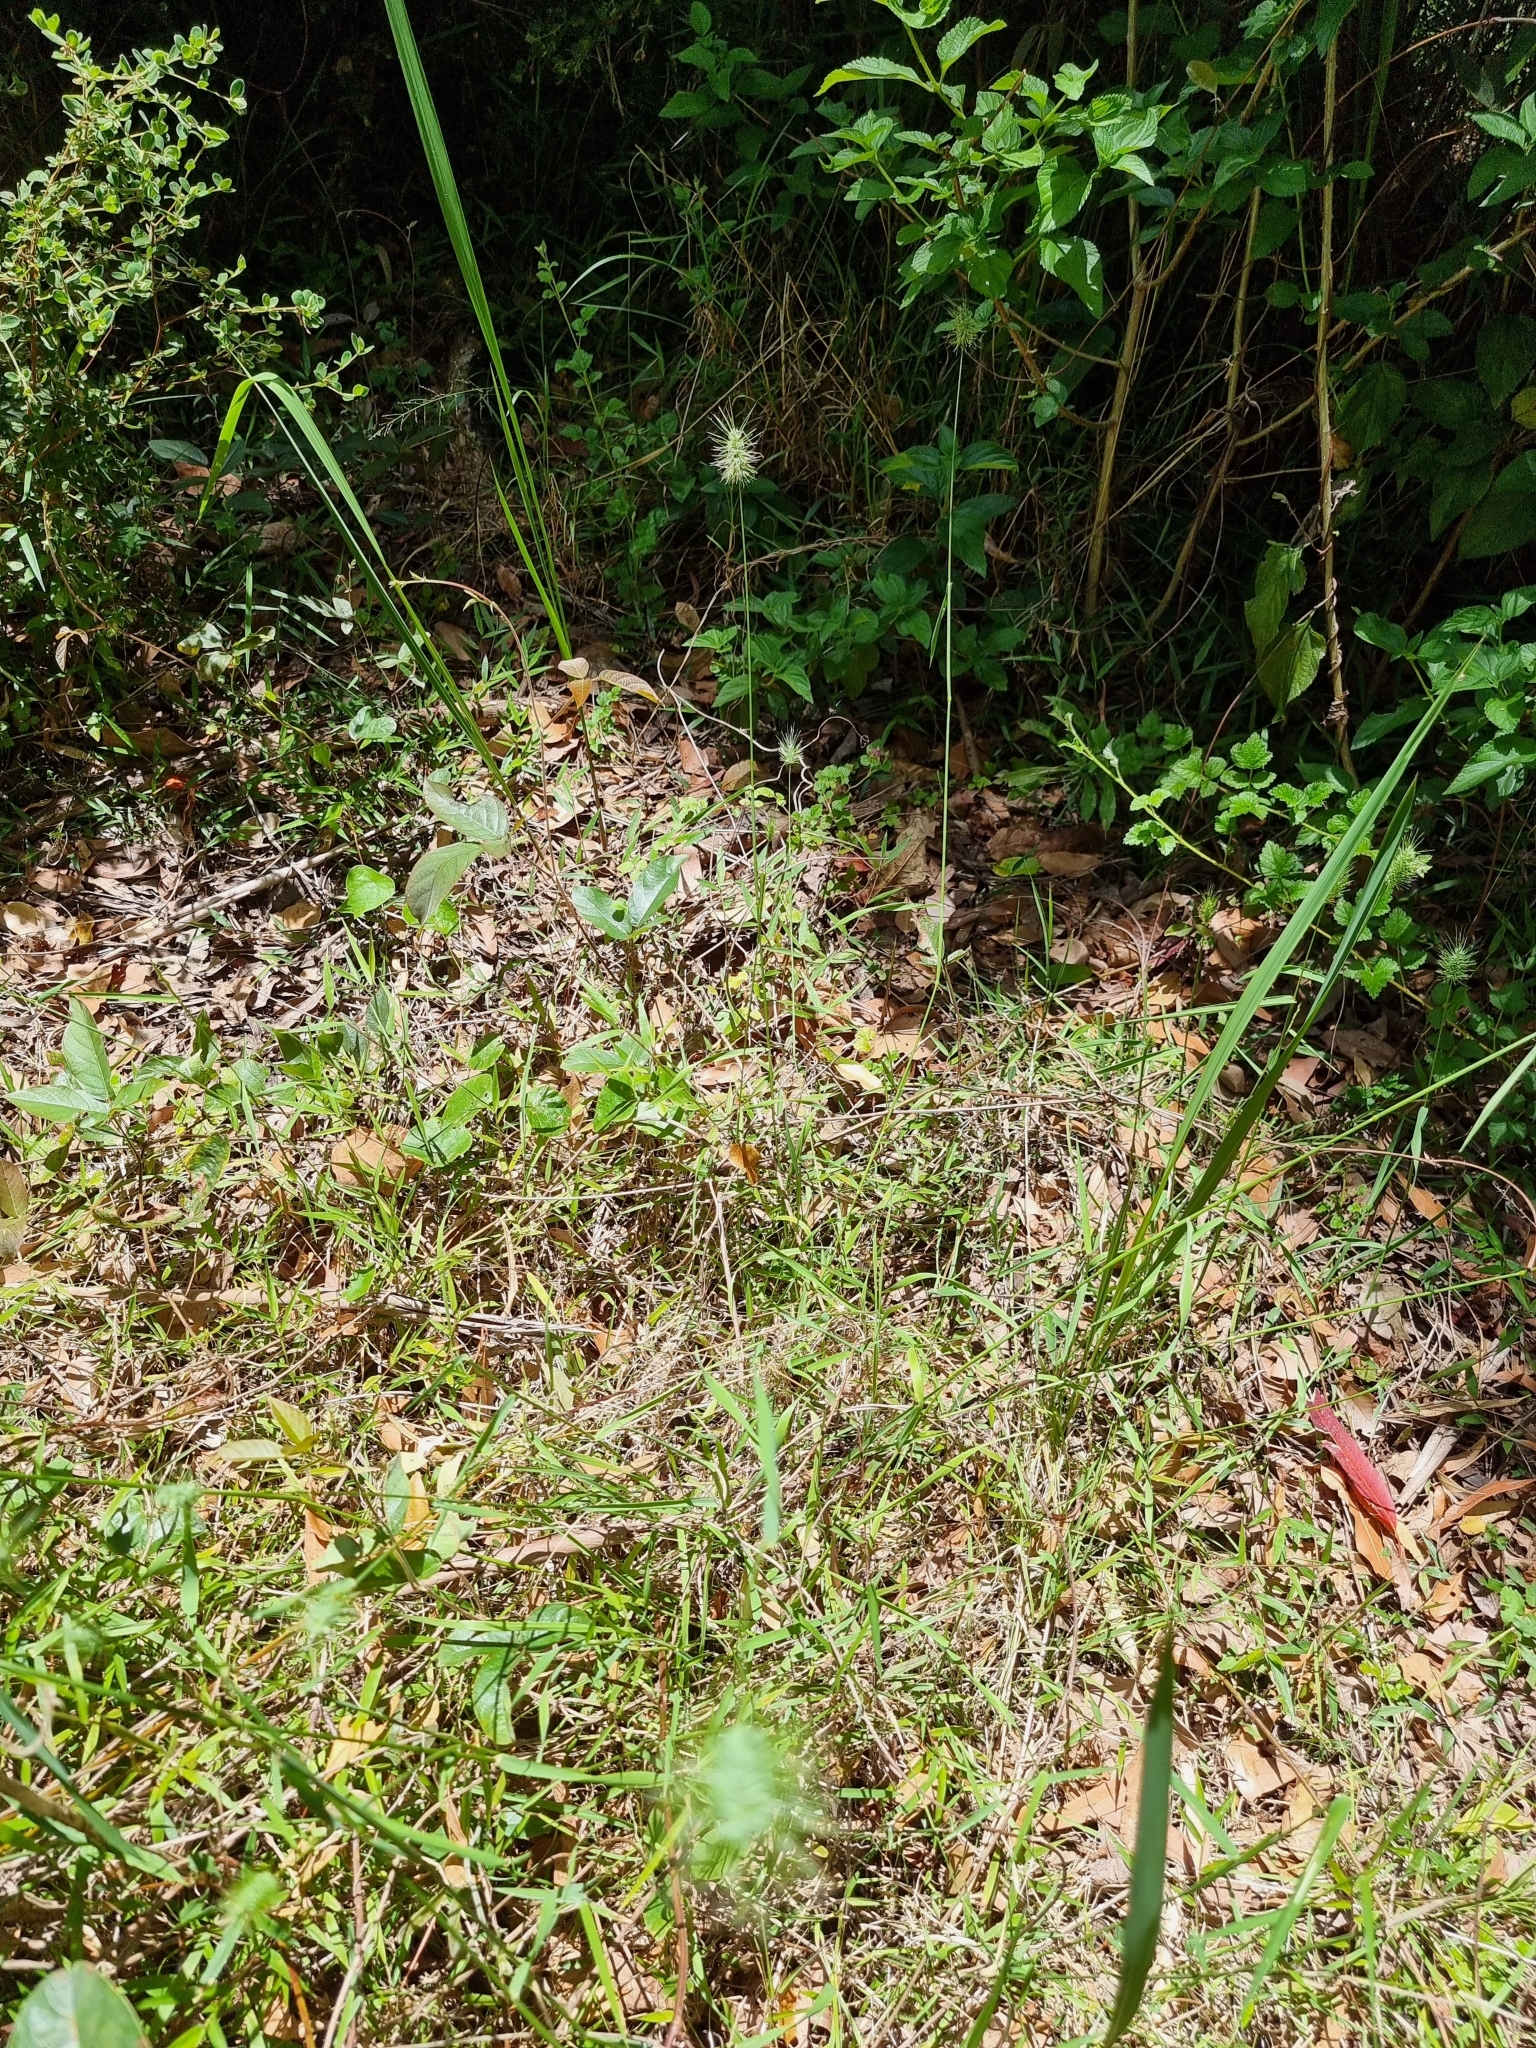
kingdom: Plantae
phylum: Tracheophyta
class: Liliopsida
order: Poales
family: Poaceae
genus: Echinopogon
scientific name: Echinopogon ovatus
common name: Hedgehog-grass
